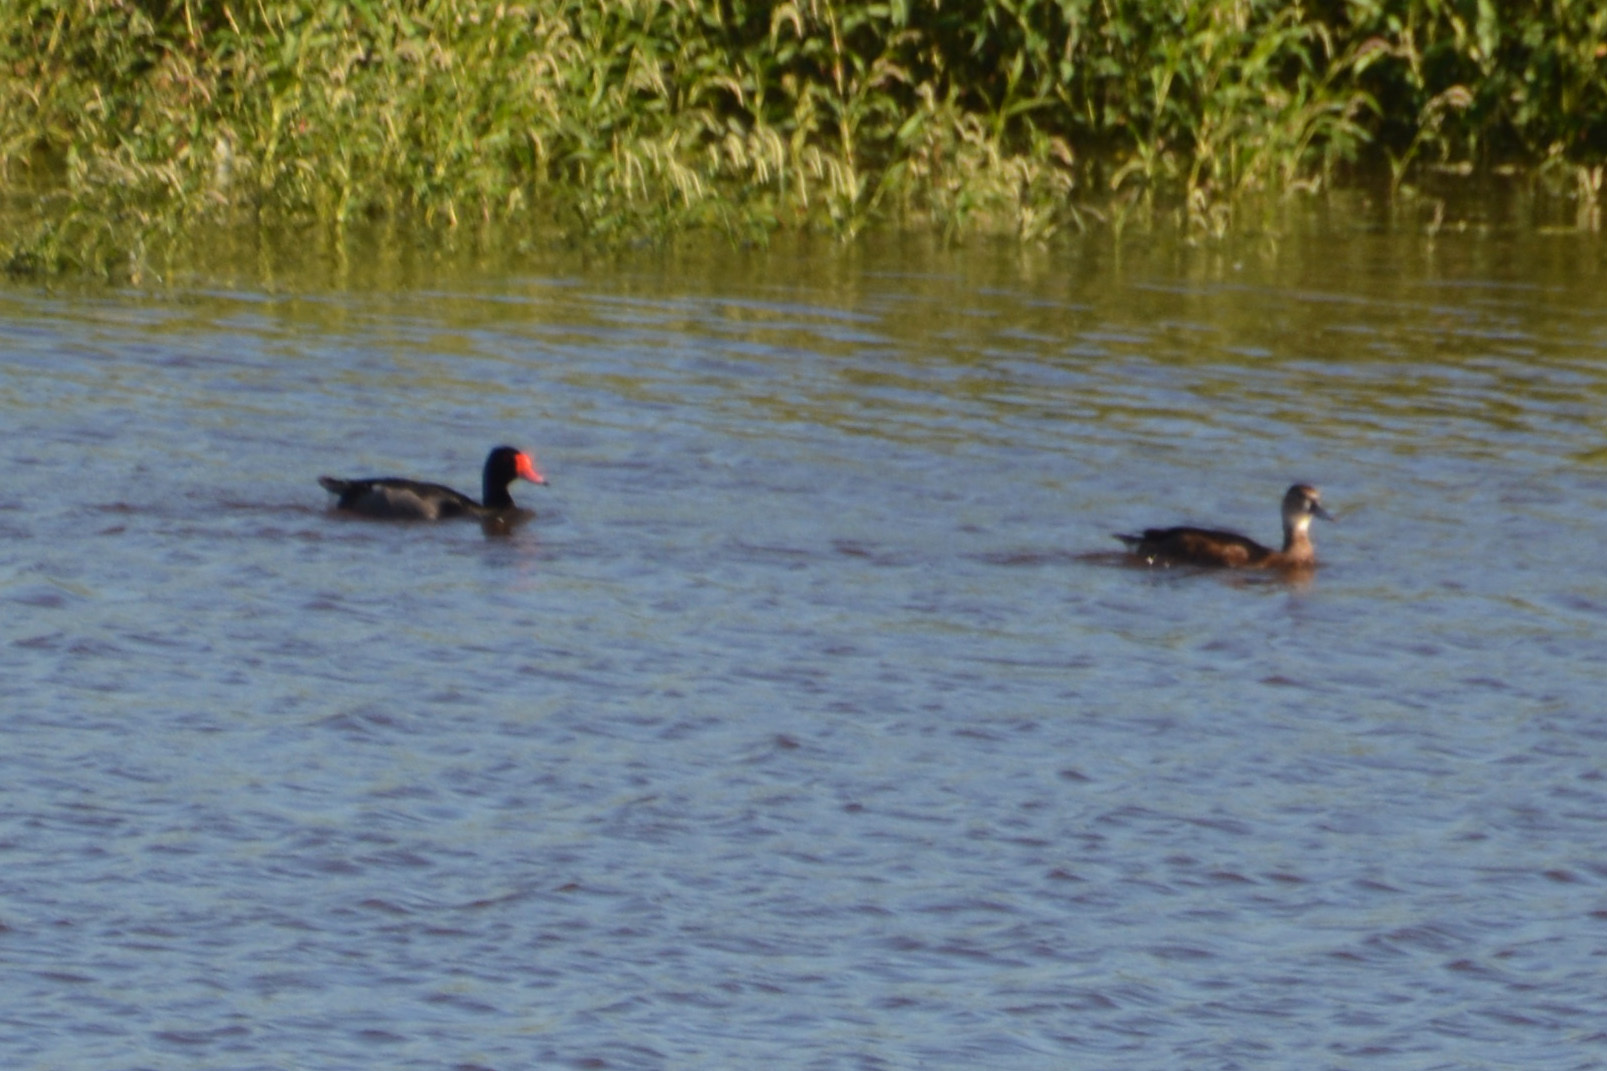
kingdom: Animalia
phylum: Chordata
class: Aves
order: Anseriformes
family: Anatidae
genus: Netta
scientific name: Netta peposaca
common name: Rosy-billed pochard
